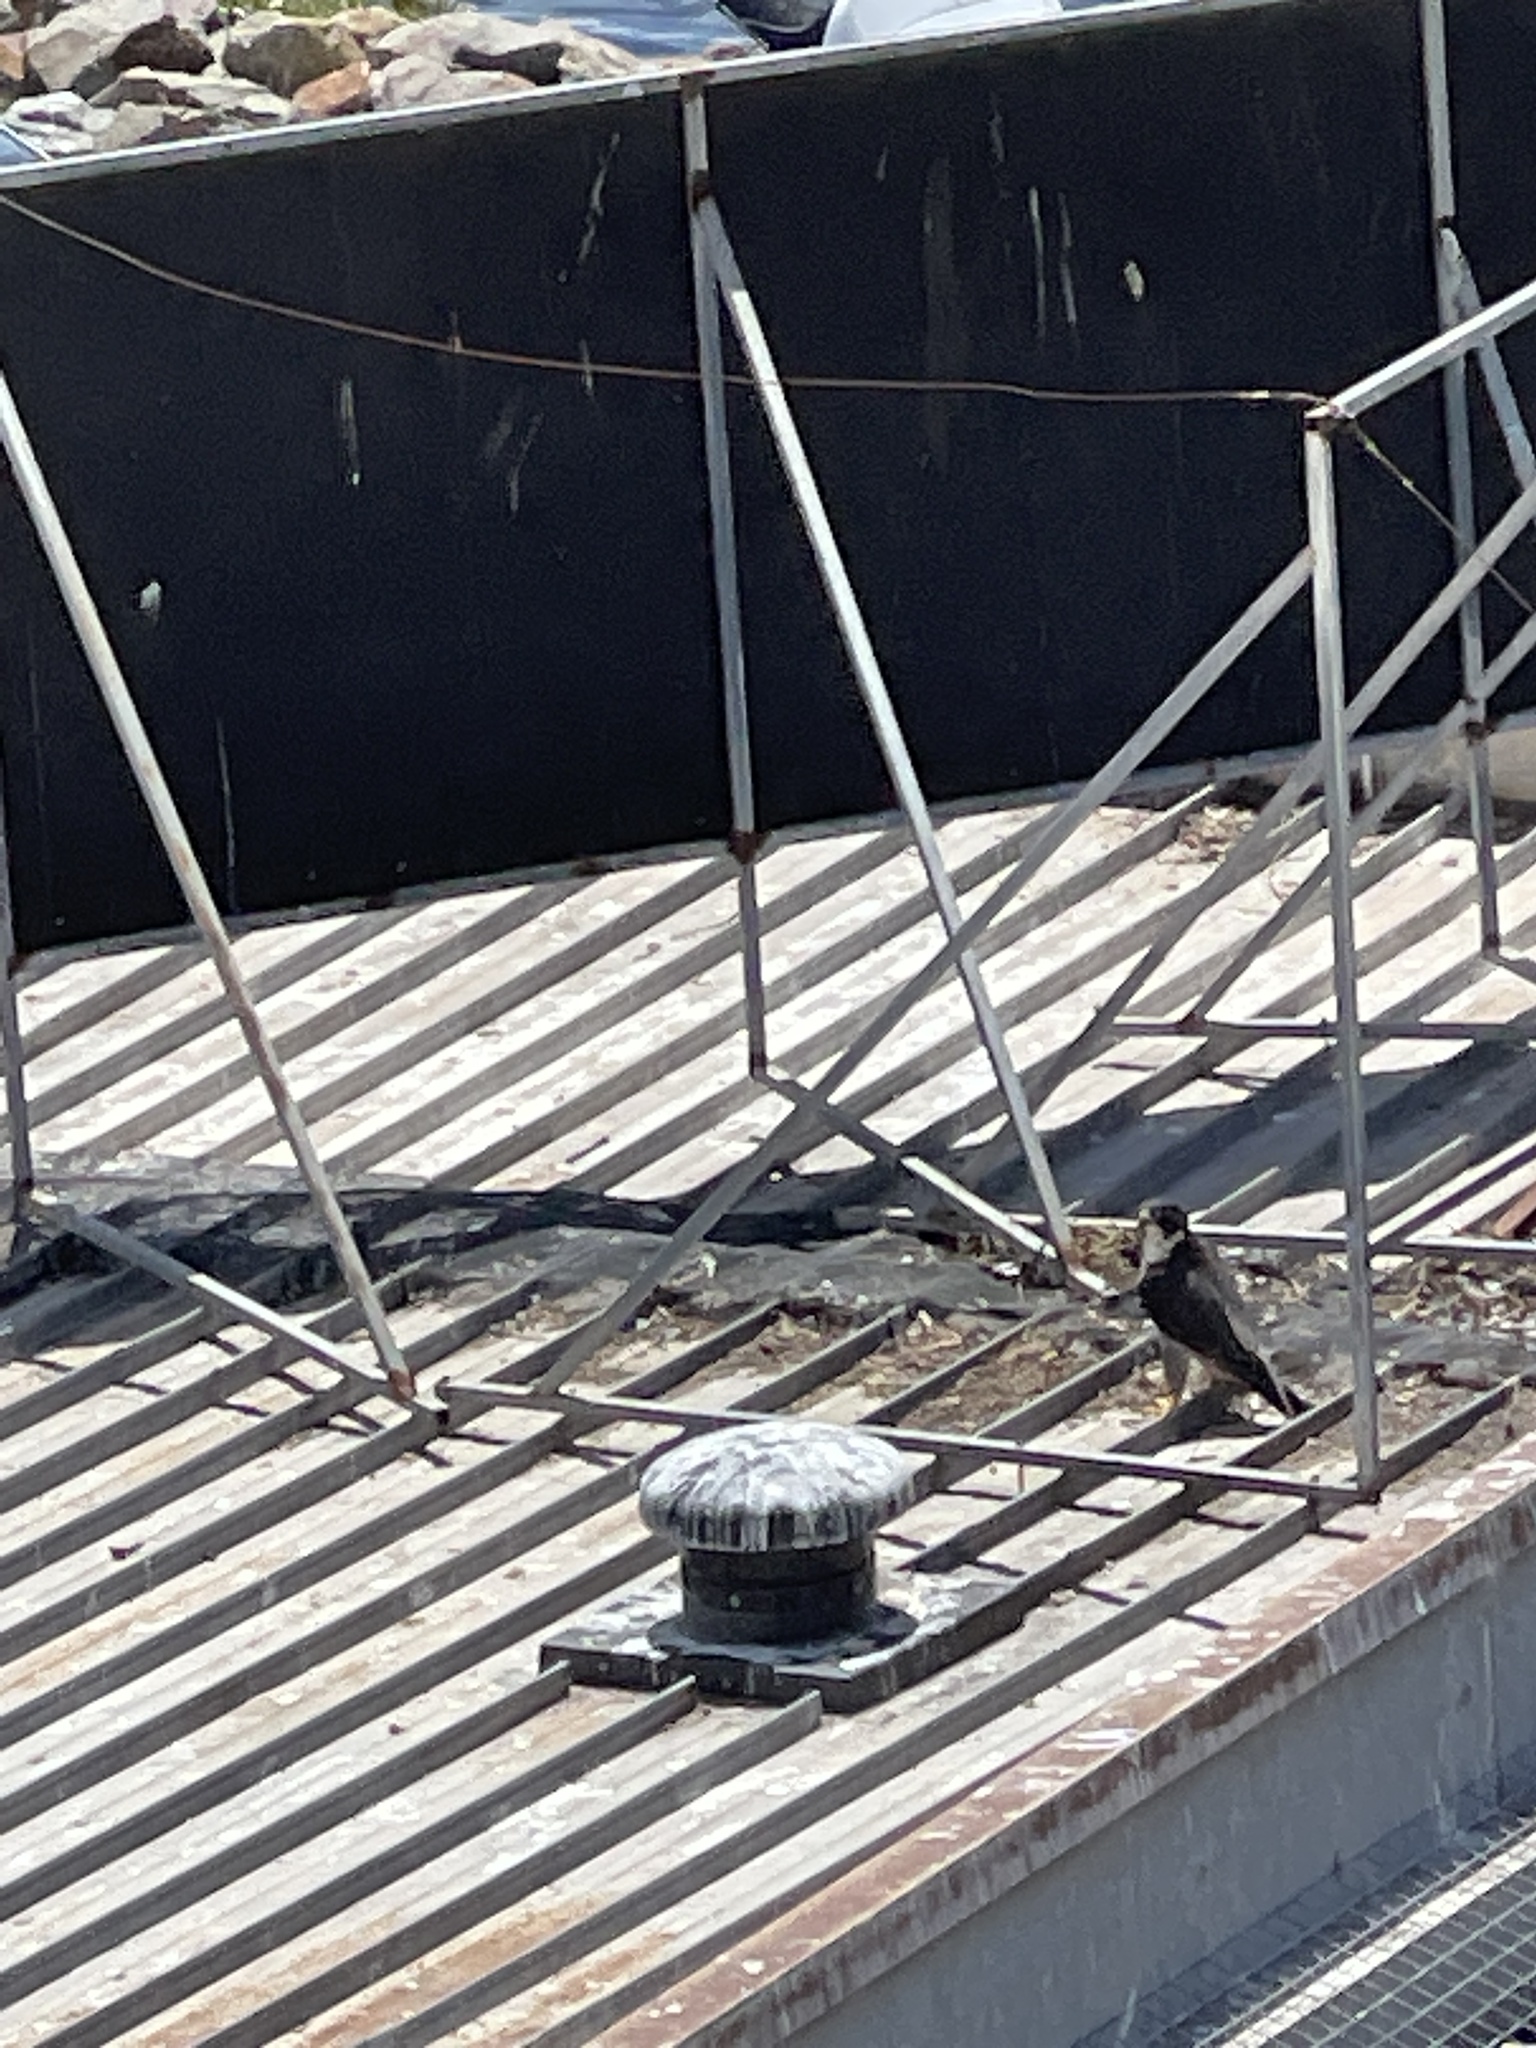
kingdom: Animalia
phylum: Chordata
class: Aves
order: Falconiformes
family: Falconidae
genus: Falco
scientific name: Falco peregrinus
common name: Peregrine falcon
